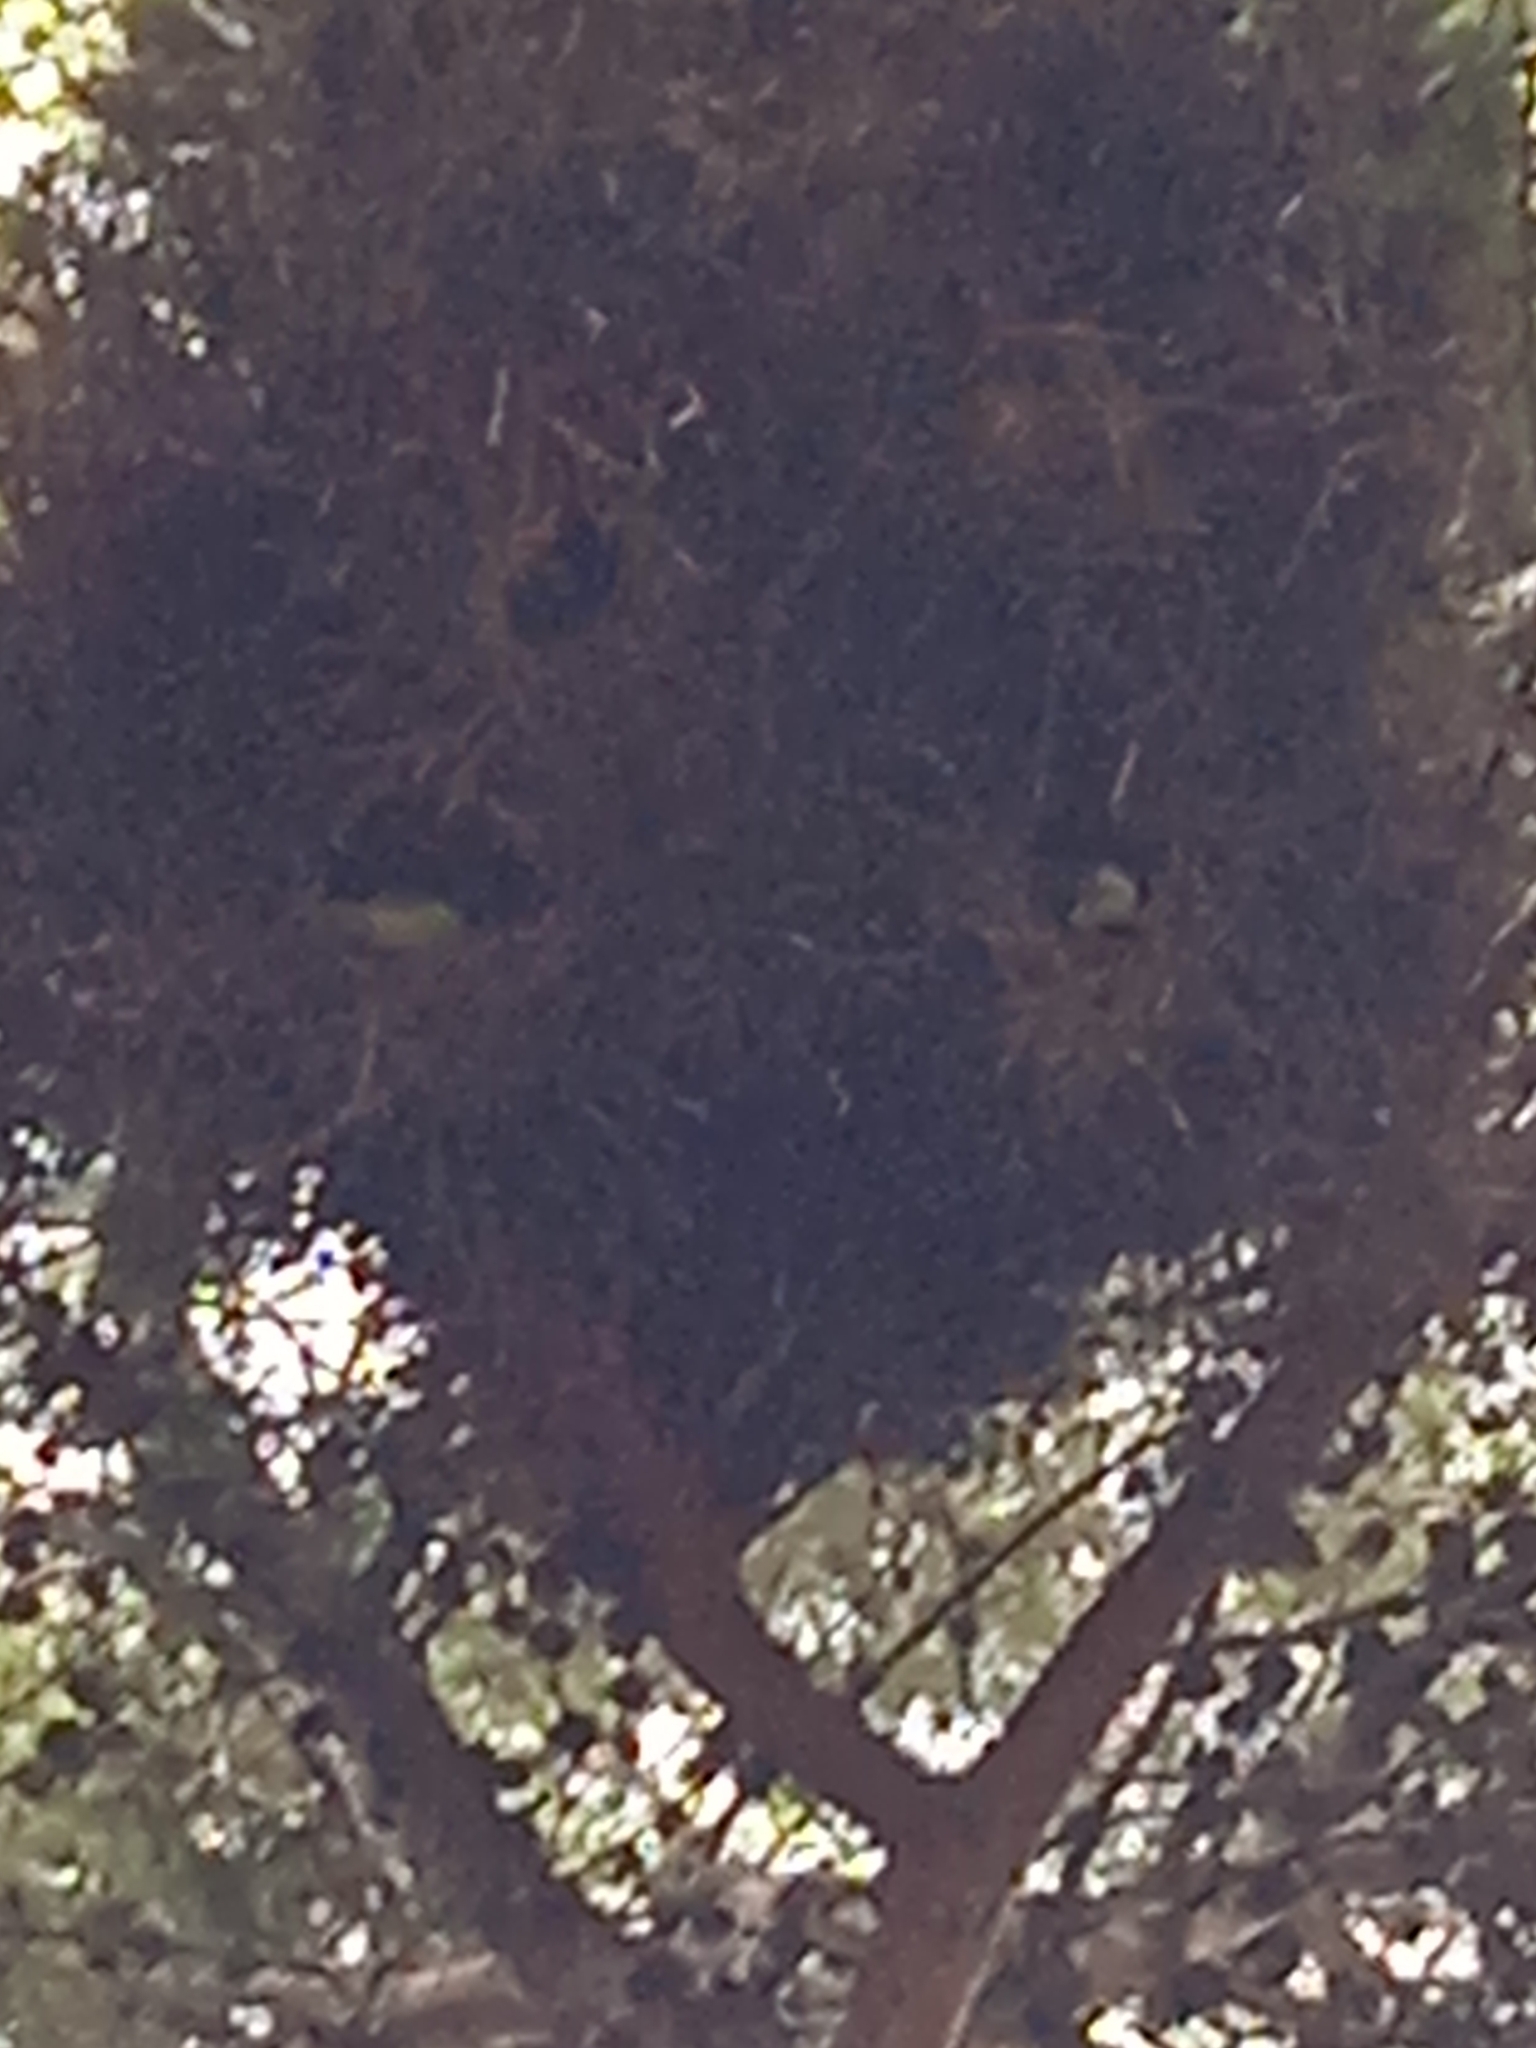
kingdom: Animalia
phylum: Chordata
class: Aves
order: Psittaciformes
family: Psittacidae
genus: Myiopsitta
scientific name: Myiopsitta monachus
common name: Monk parakeet
